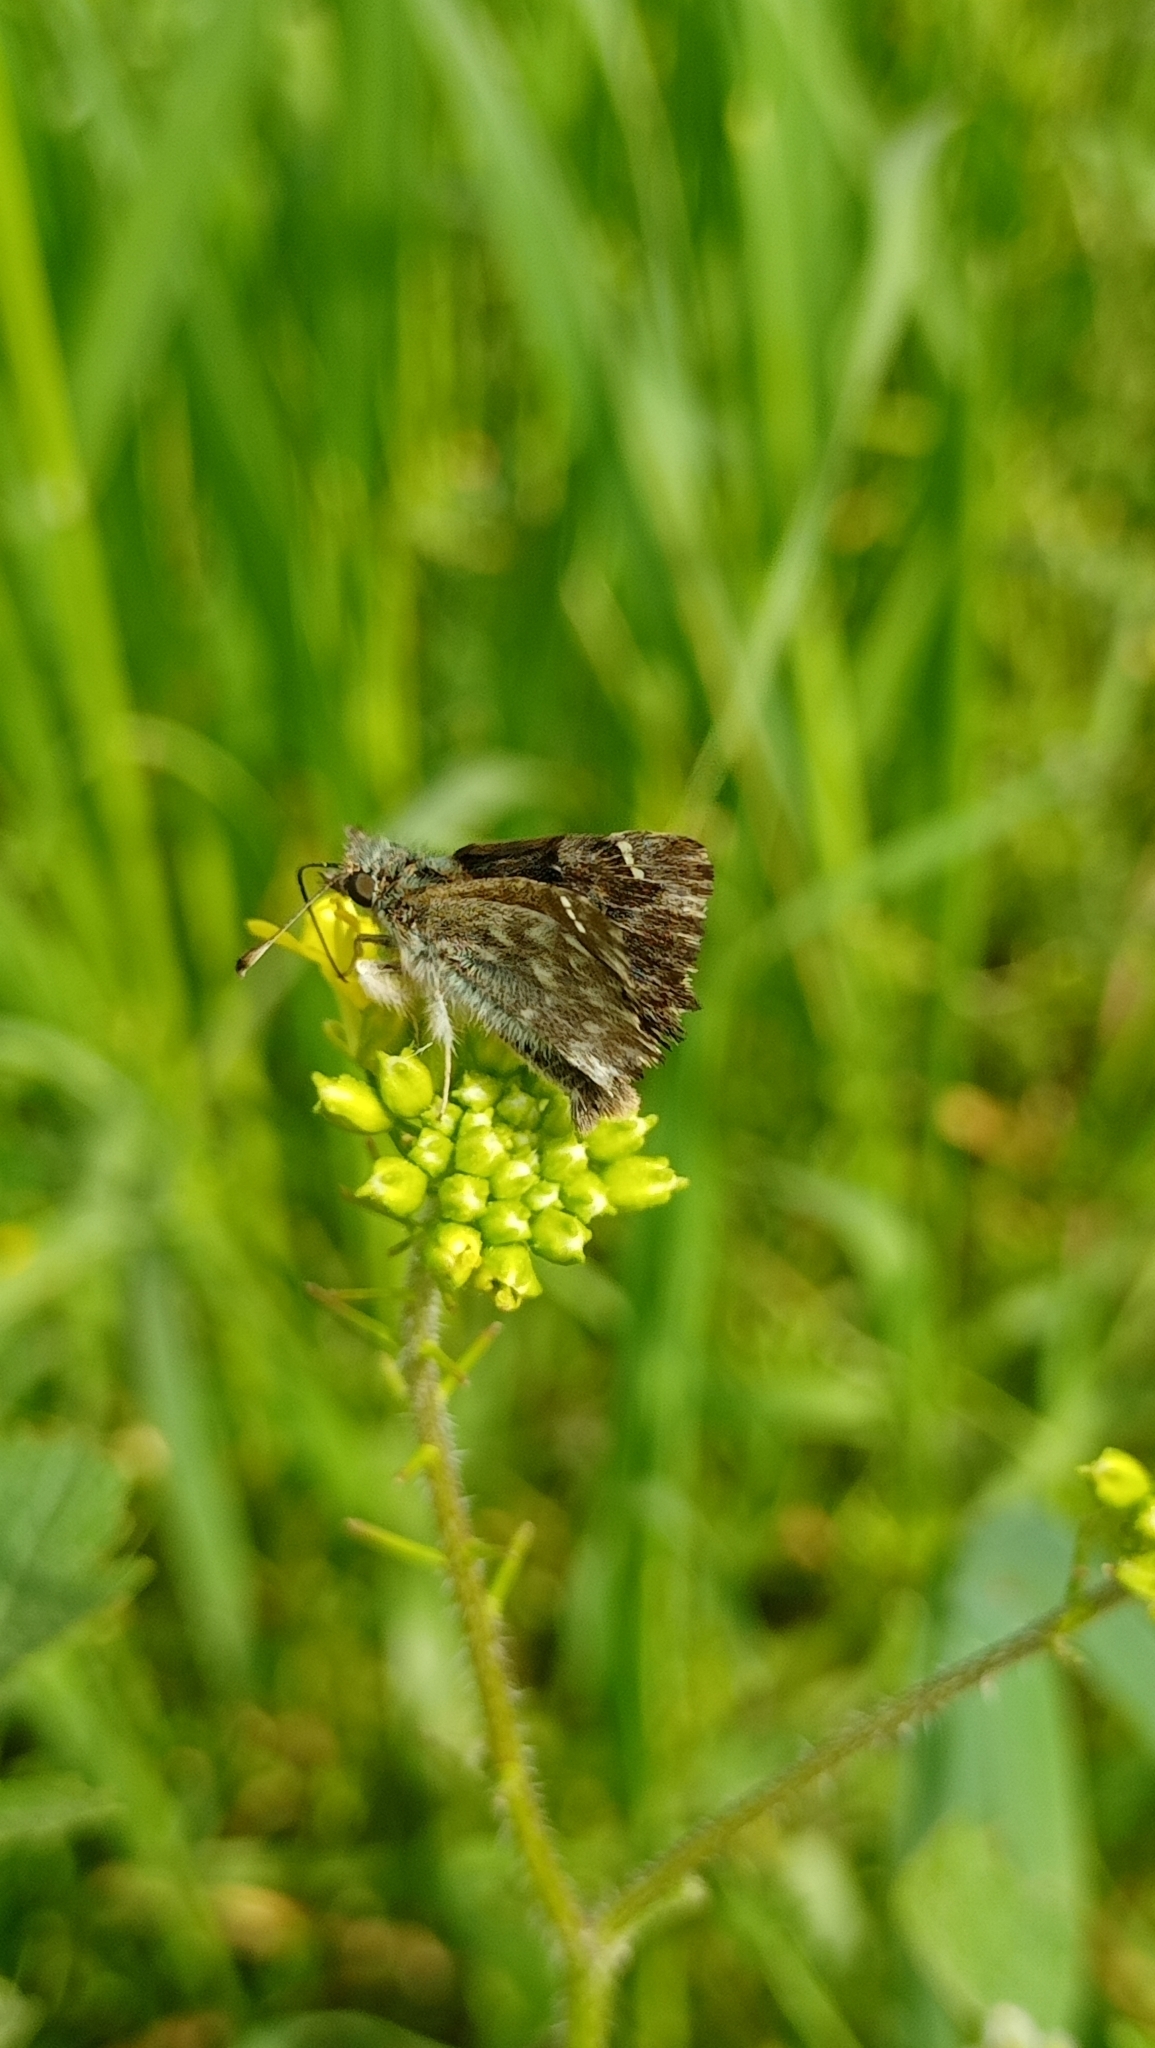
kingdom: Animalia
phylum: Arthropoda
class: Insecta
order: Lepidoptera
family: Hesperiidae
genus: Carcharodus
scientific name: Carcharodus alceae
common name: Mallow skipper
